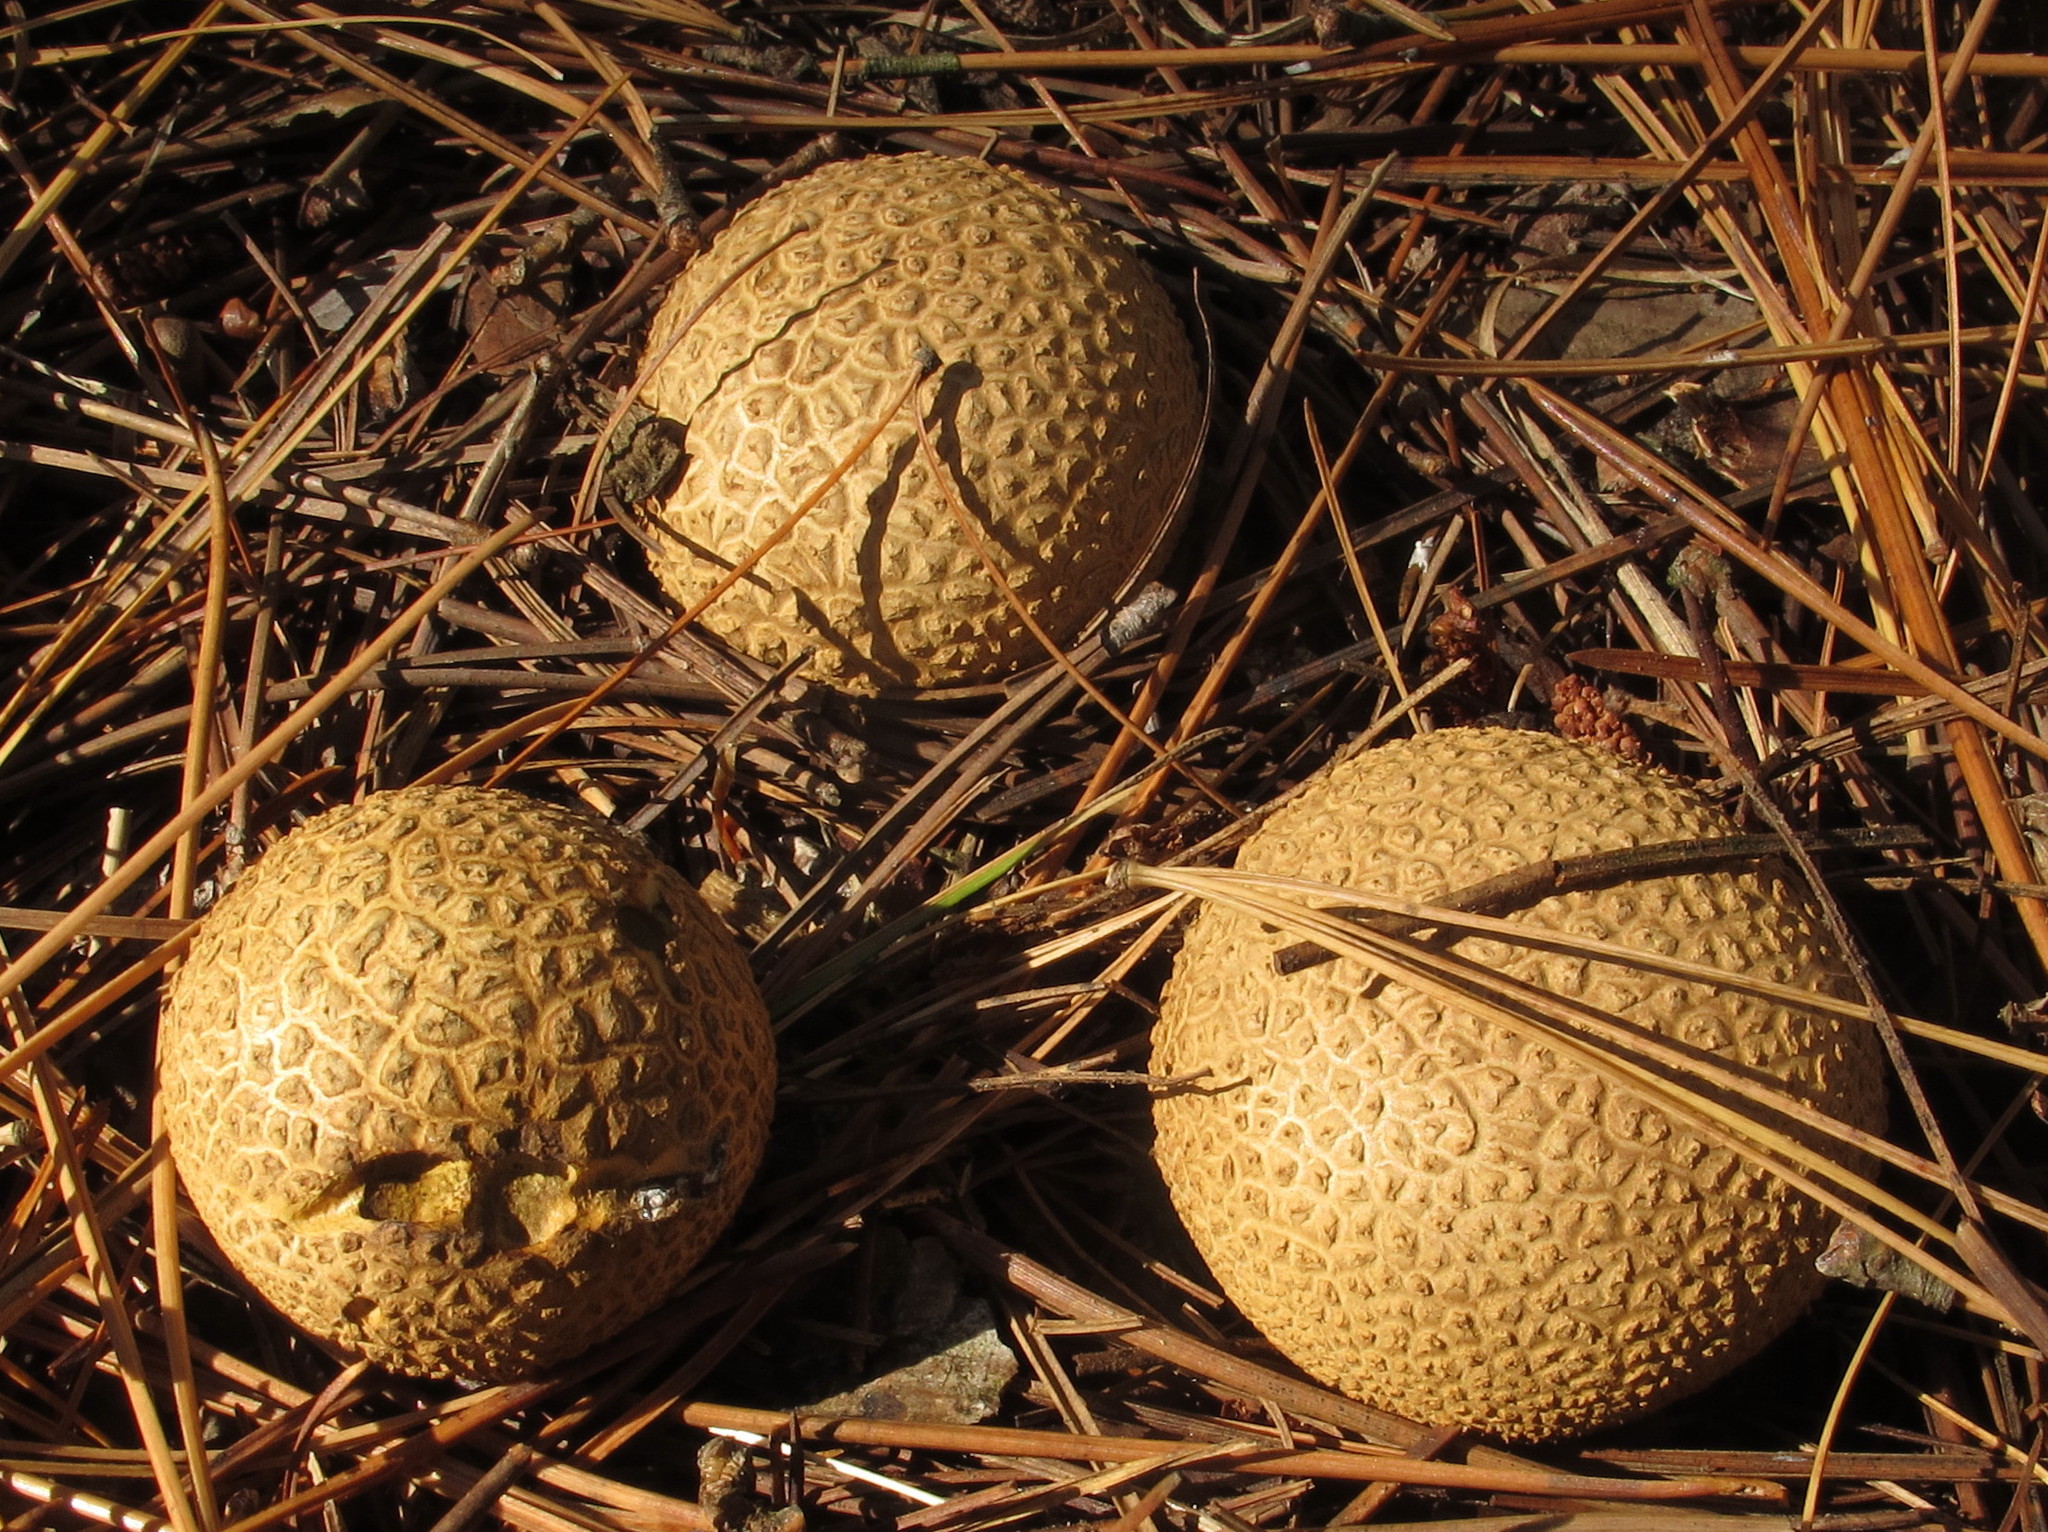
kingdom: Fungi
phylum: Basidiomycota
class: Agaricomycetes
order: Boletales
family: Sclerodermataceae
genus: Scleroderma
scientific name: Scleroderma citrinum
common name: Common earthball
